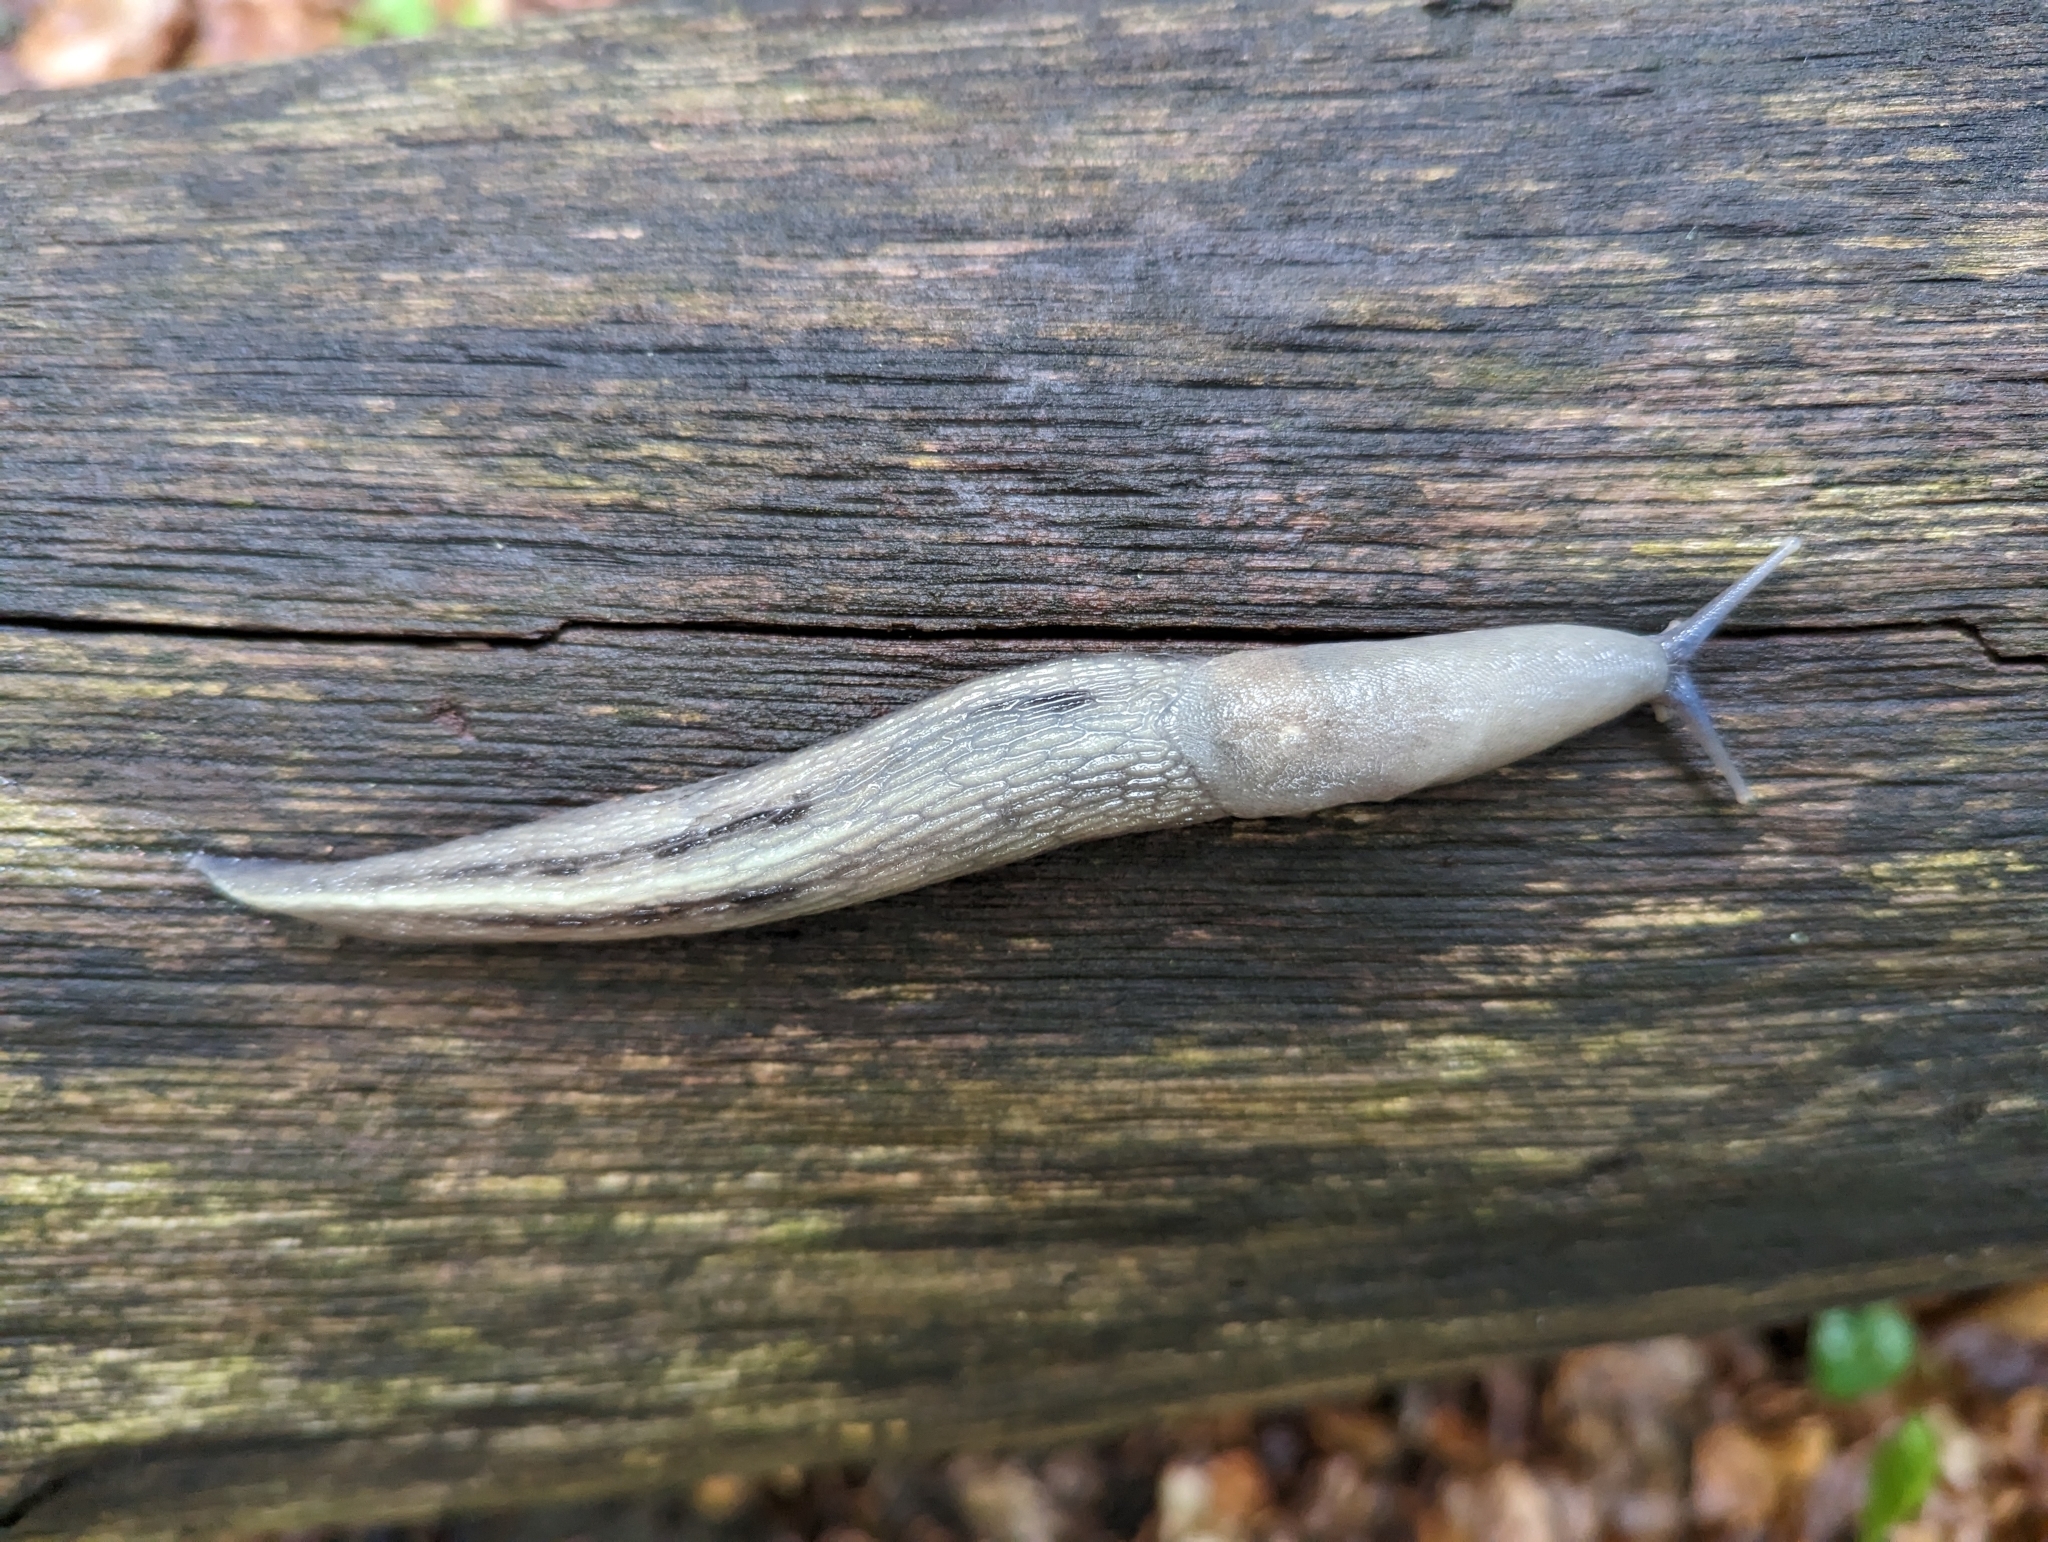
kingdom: Animalia
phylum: Mollusca
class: Gastropoda
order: Stylommatophora
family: Limacidae
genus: Limax
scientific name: Limax cinereoniger
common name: Ash-black slug
